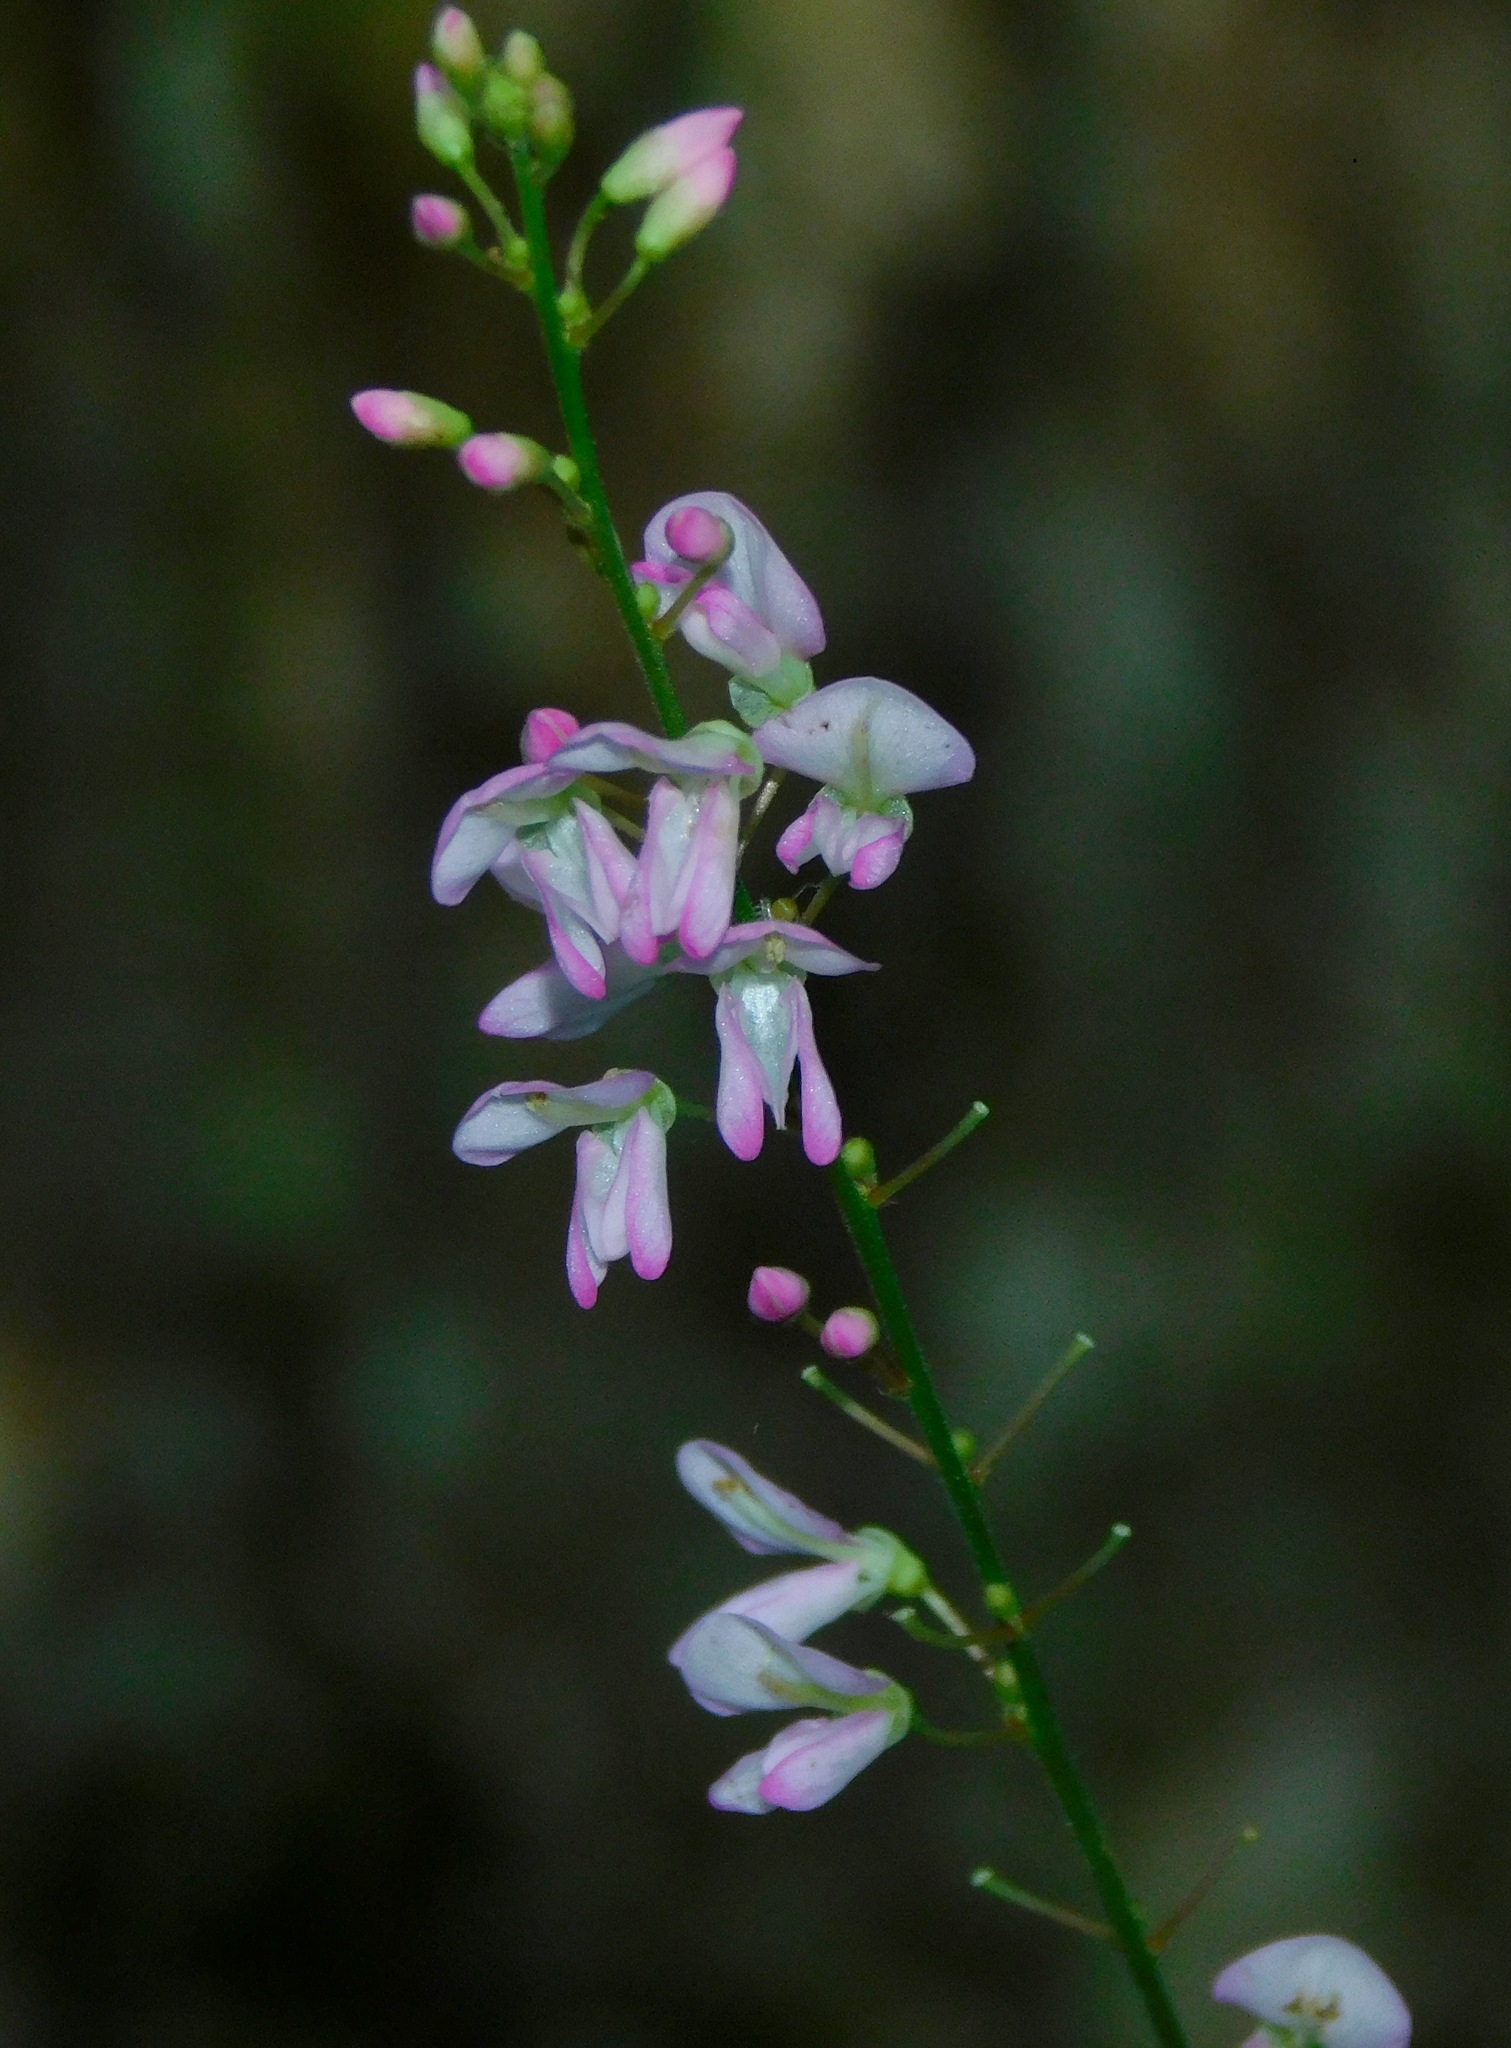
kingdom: Plantae
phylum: Tracheophyta
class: Magnoliopsida
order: Fabales
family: Fabaceae
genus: Hylodesmum
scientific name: Hylodesmum glutinosum
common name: Clustered-leaved tick-trefoil
